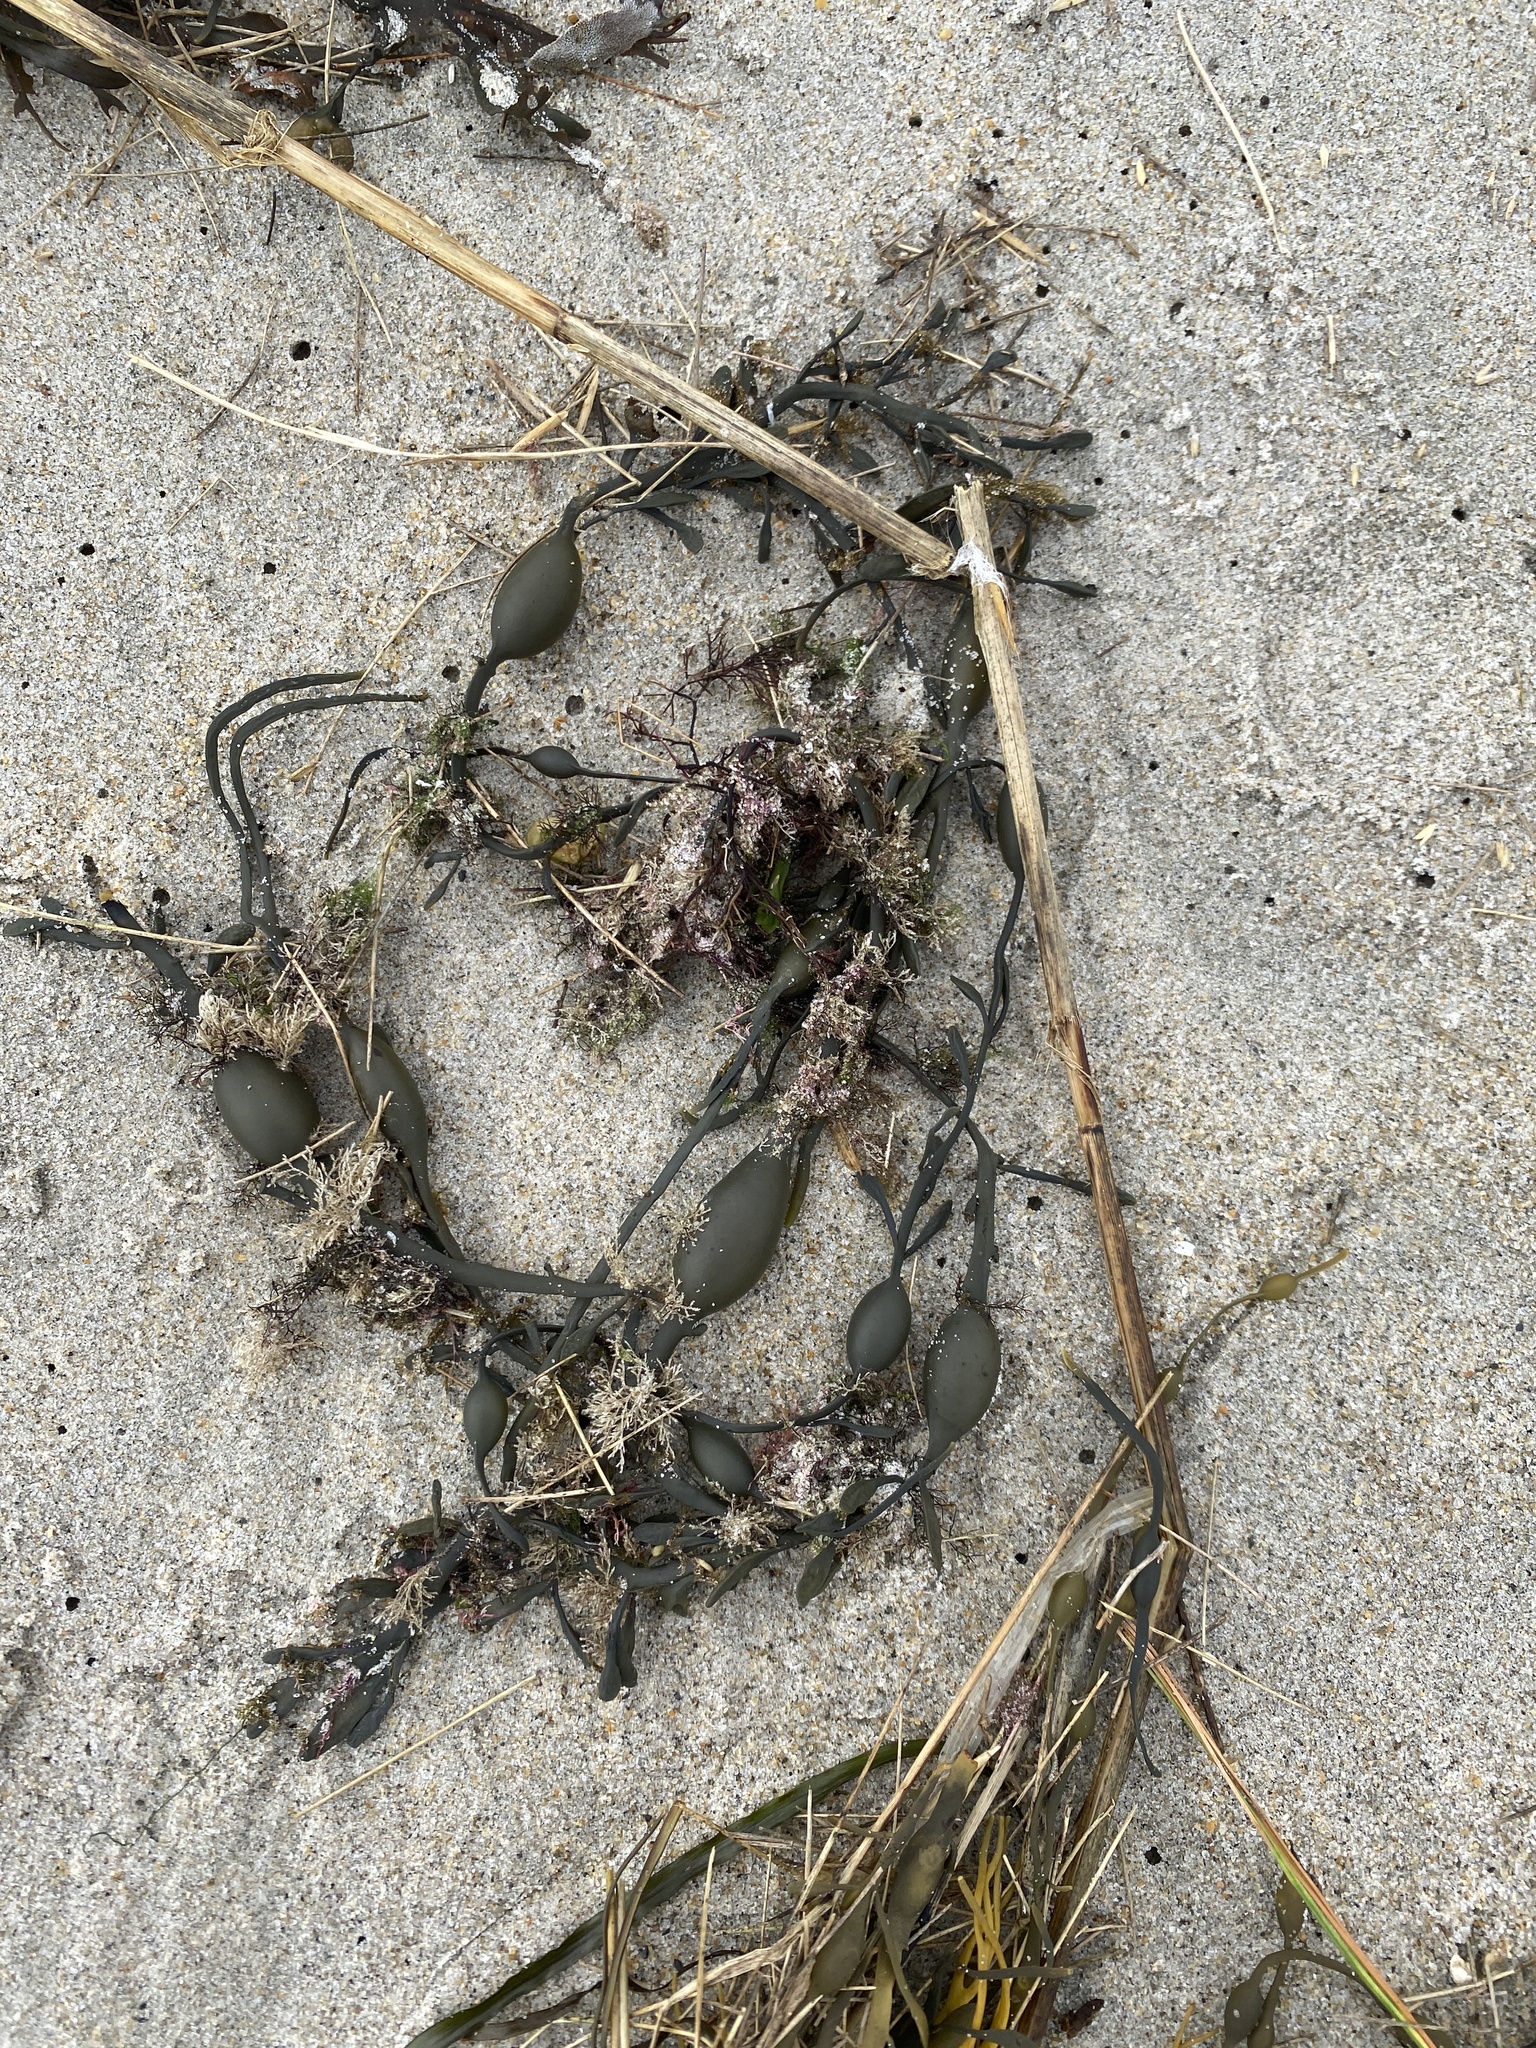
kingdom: Chromista
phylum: Ochrophyta
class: Phaeophyceae
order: Fucales
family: Fucaceae
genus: Ascophyllum
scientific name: Ascophyllum nodosum
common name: Knotted wrack
